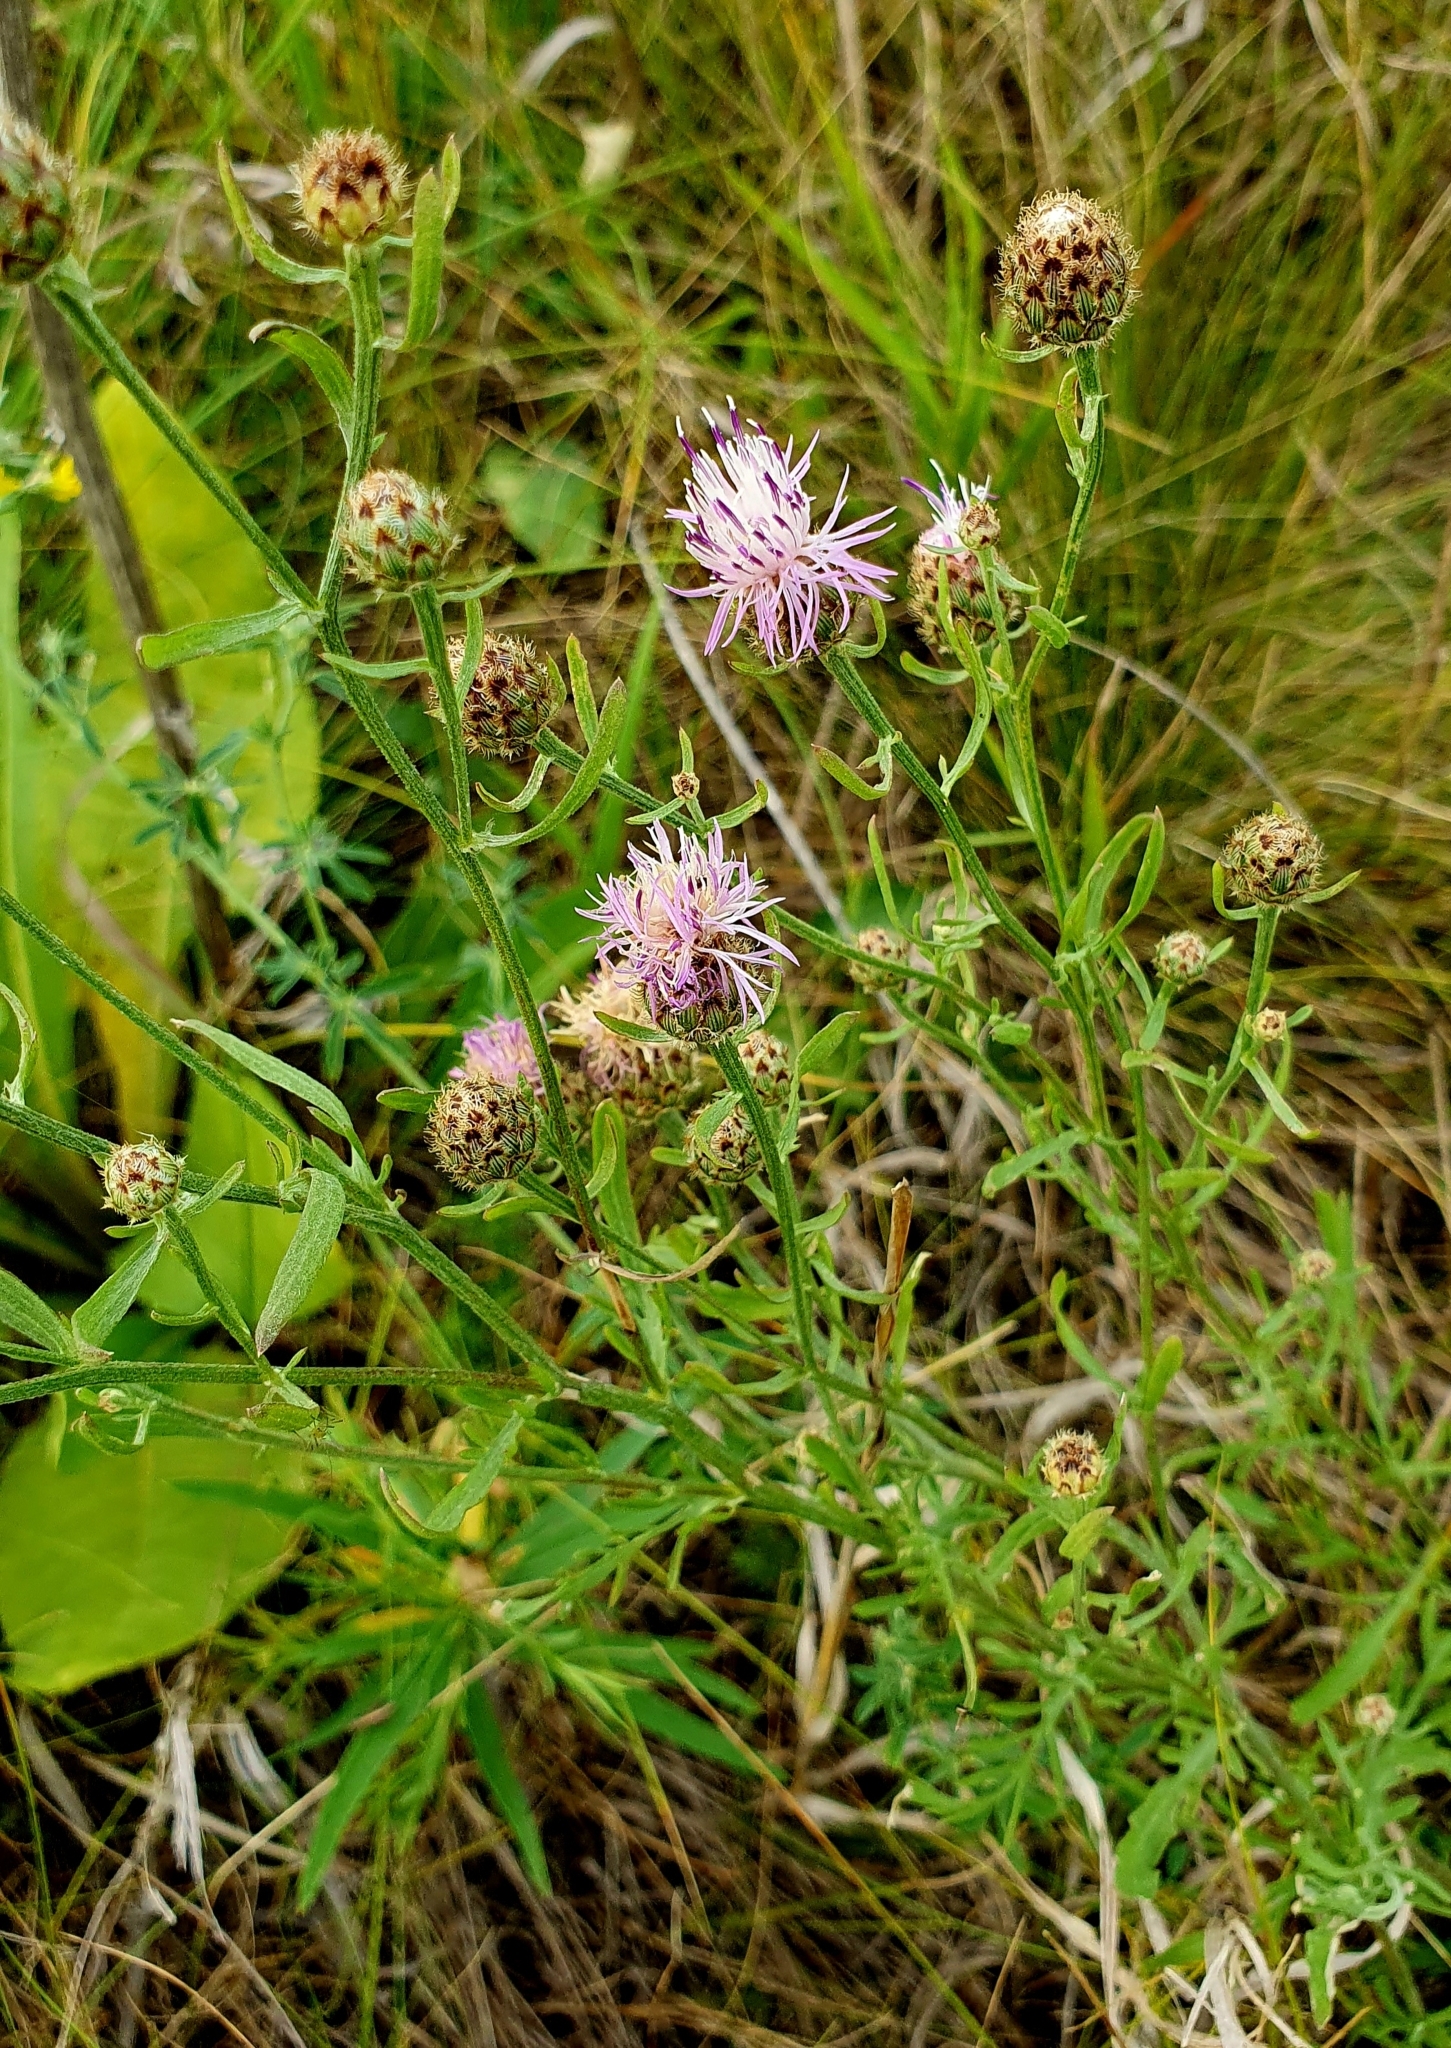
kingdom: Plantae
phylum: Tracheophyta
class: Magnoliopsida
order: Asterales
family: Asteraceae
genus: Centaurea
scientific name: Centaurea stoebe
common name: Spotted knapweed
